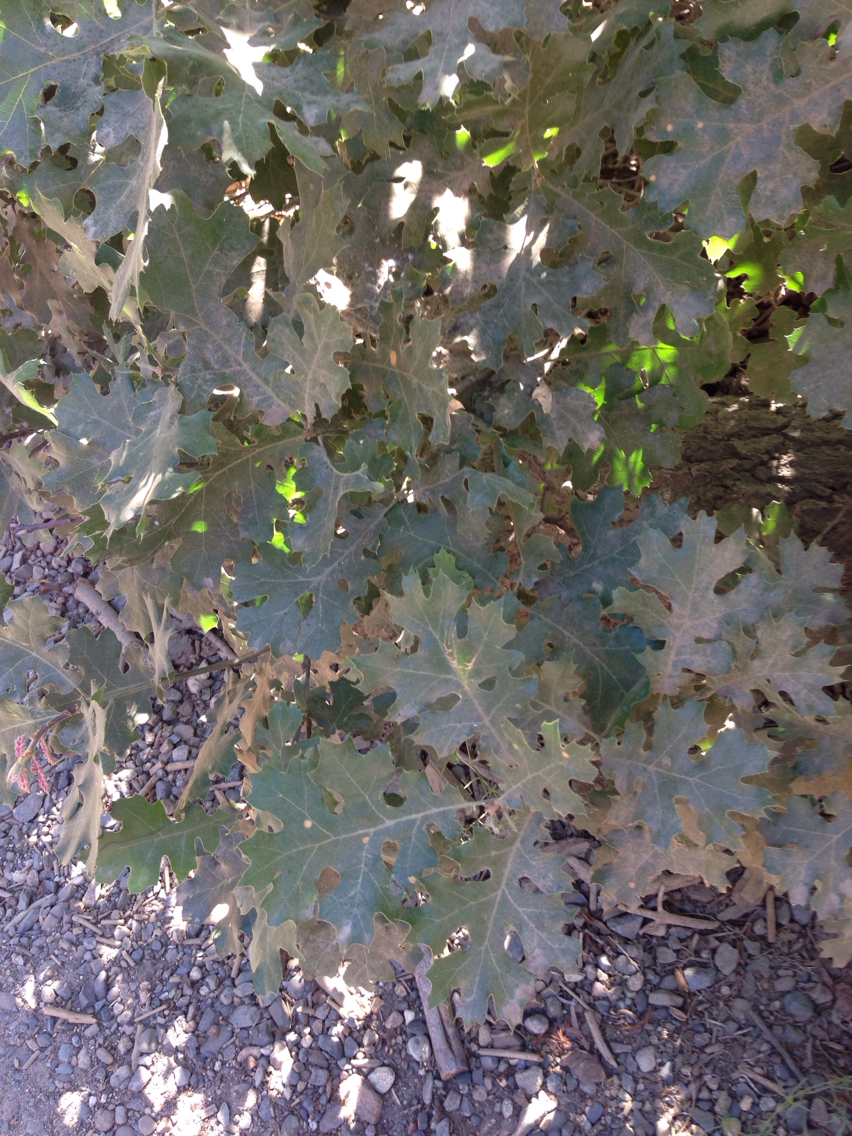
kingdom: Plantae
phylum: Tracheophyta
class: Magnoliopsida
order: Fagales
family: Fagaceae
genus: Quercus
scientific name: Quercus kelloggii
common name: California black oak
